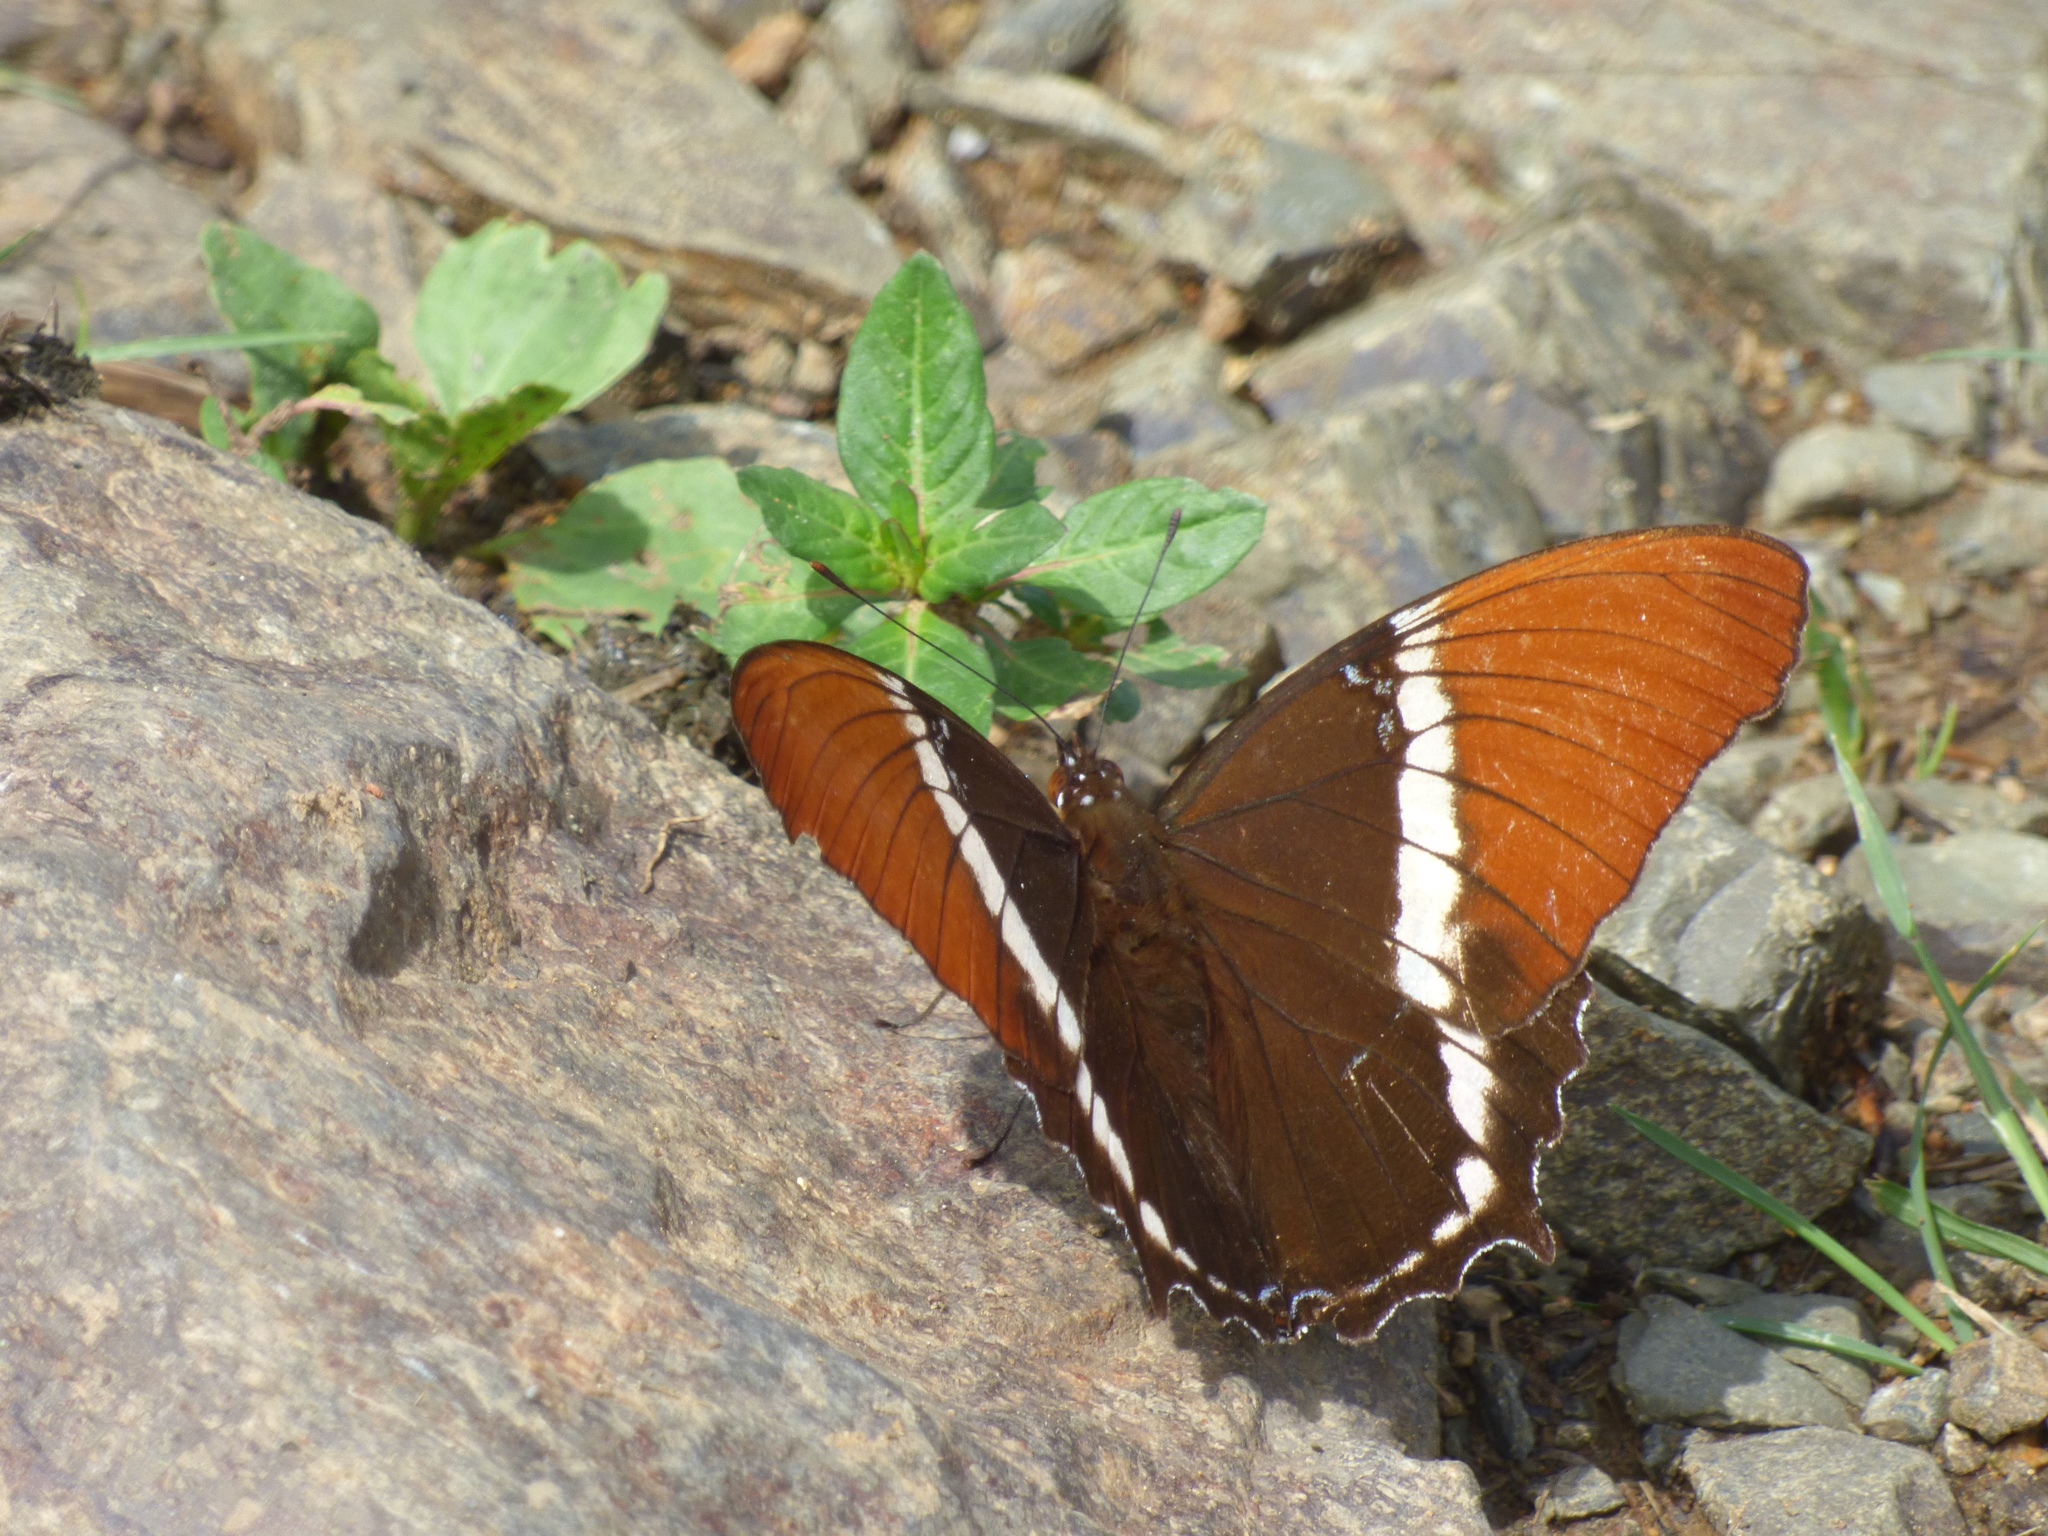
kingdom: Animalia
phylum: Arthropoda
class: Insecta
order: Lepidoptera
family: Nymphalidae
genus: Siproeta
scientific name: Siproeta epaphus
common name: Rusty-tipped page
